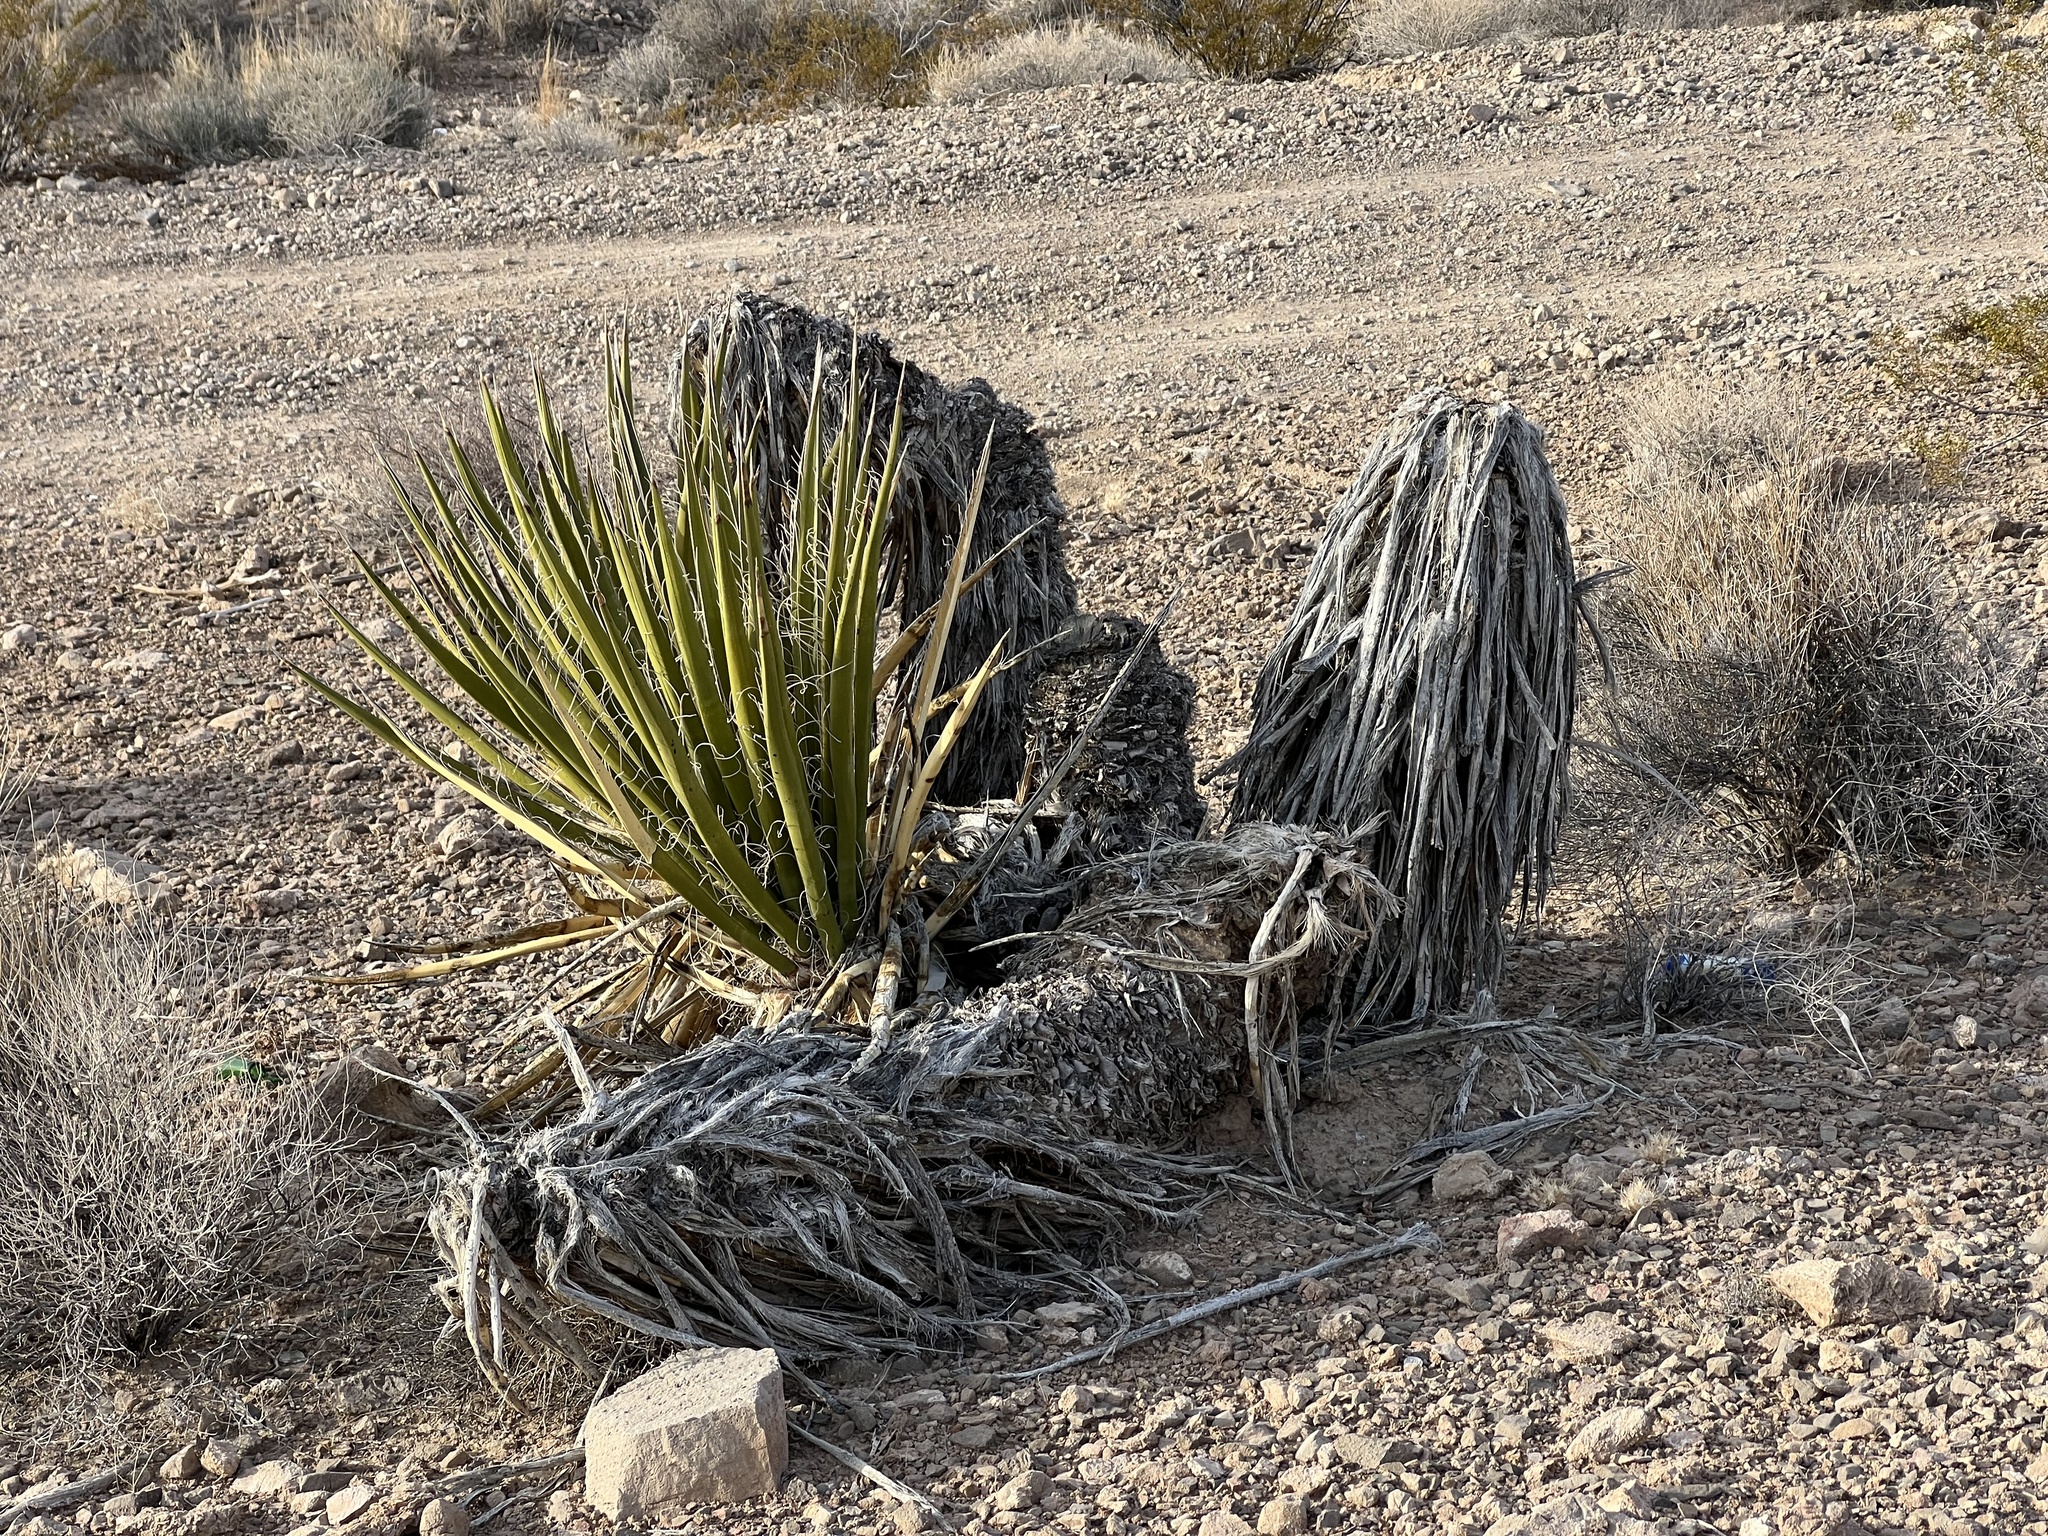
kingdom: Plantae
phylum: Tracheophyta
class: Liliopsida
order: Asparagales
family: Asparagaceae
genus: Yucca
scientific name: Yucca schidigera
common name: Mojave yucca
